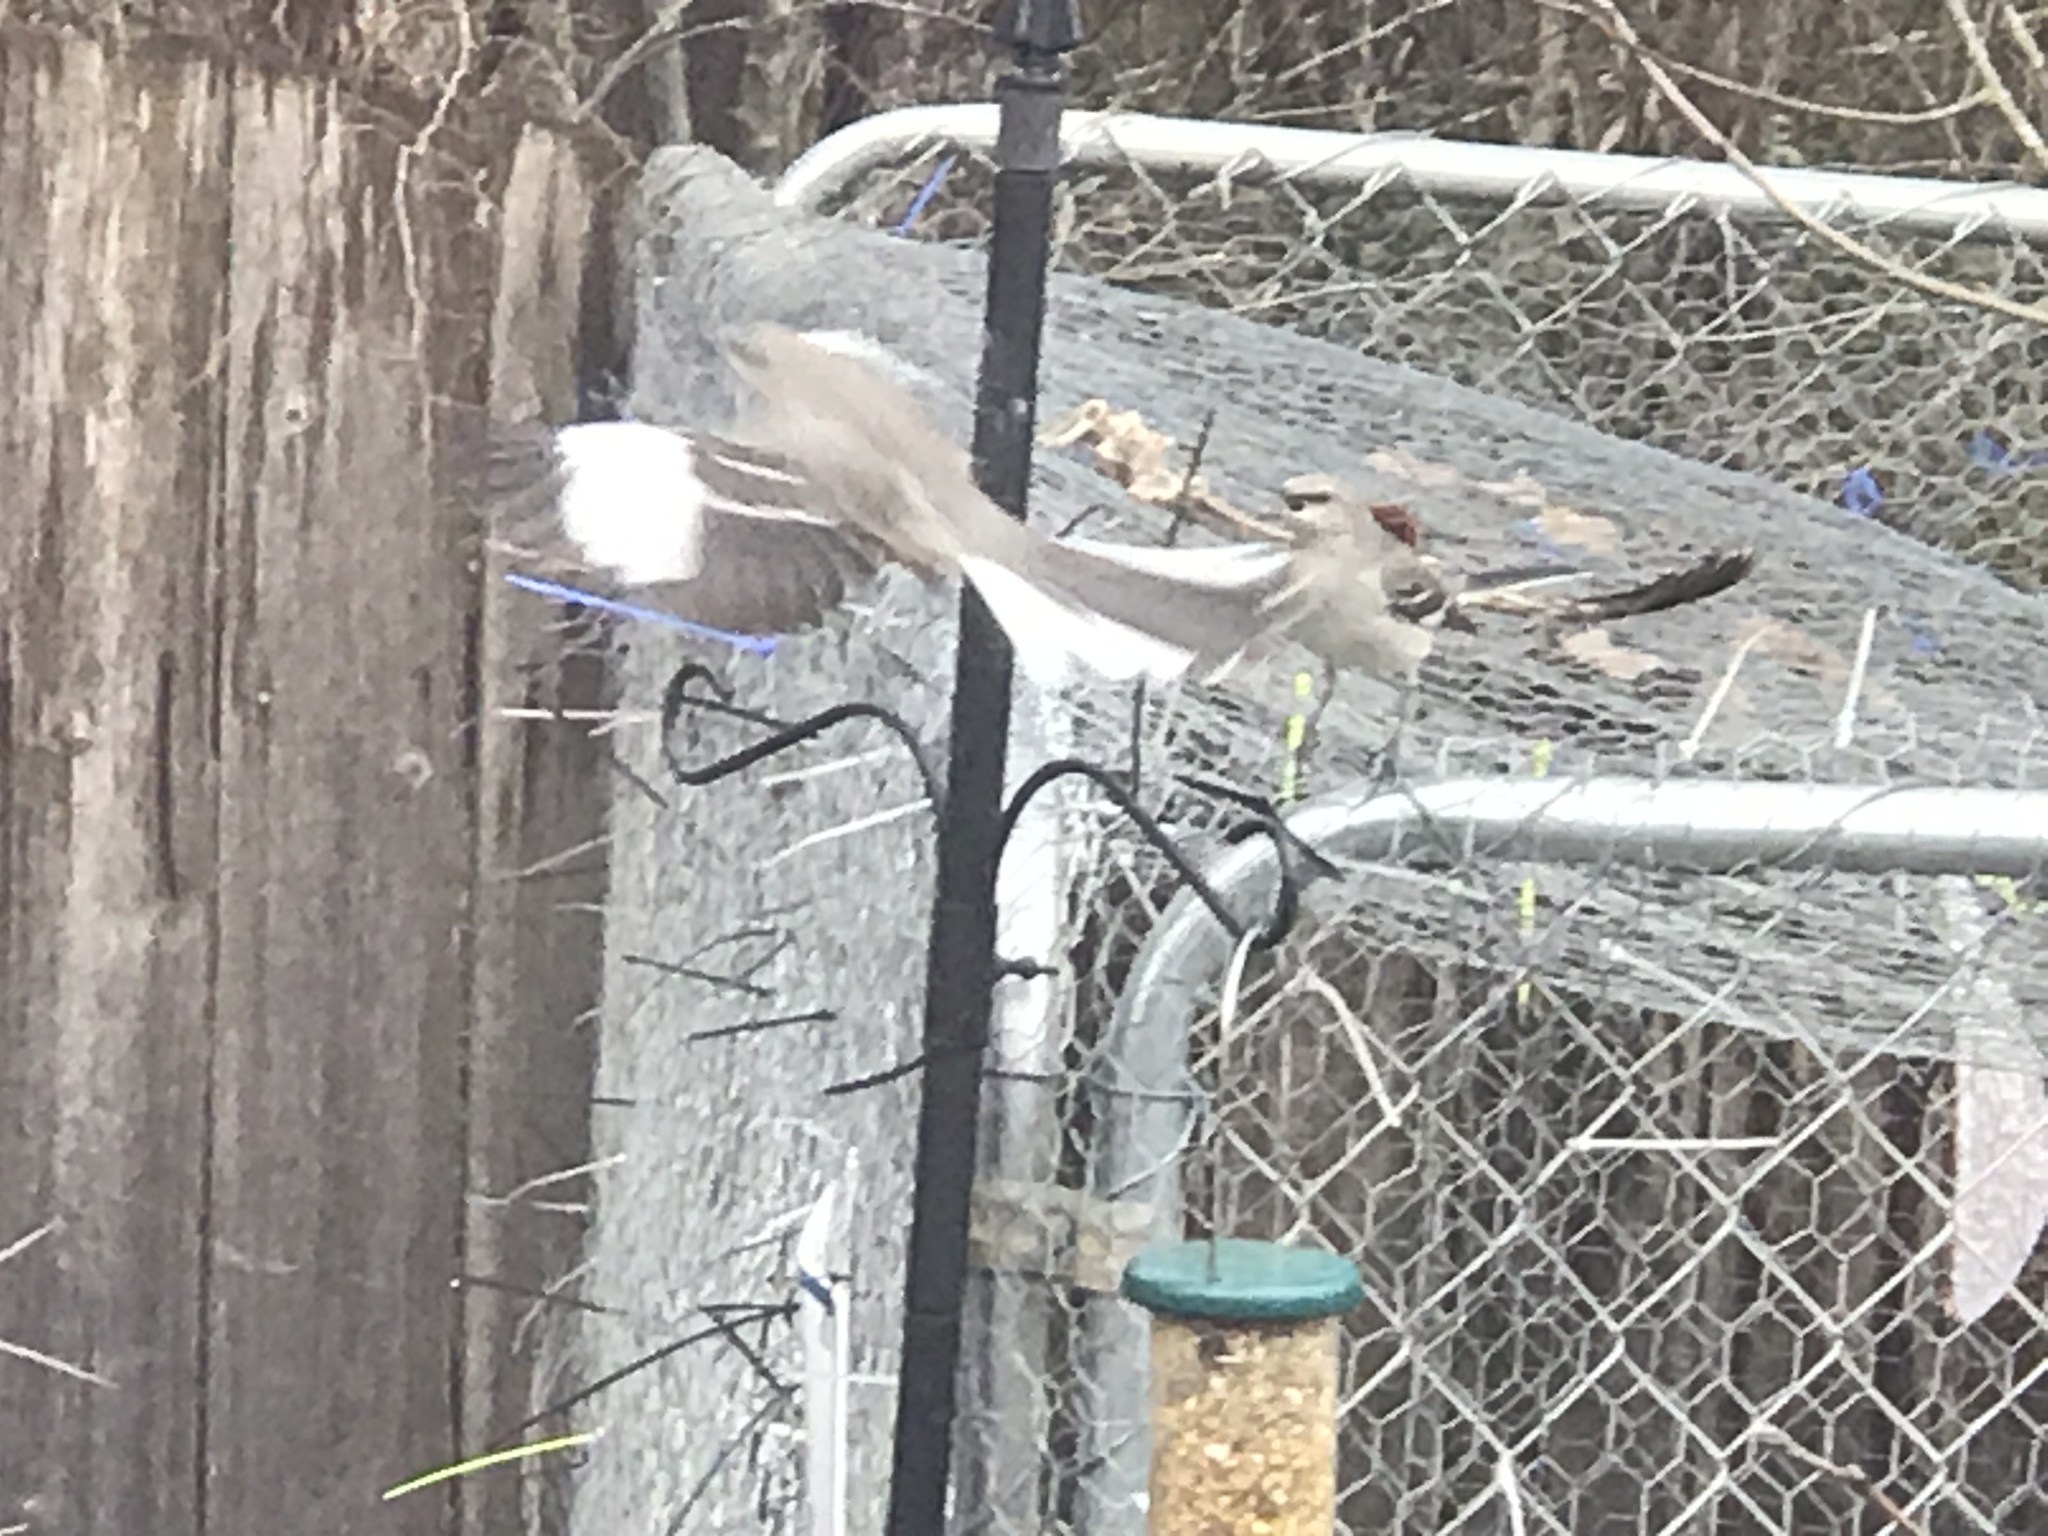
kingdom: Animalia
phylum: Chordata
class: Aves
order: Passeriformes
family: Mimidae
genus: Mimus
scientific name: Mimus polyglottos
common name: Northern mockingbird
